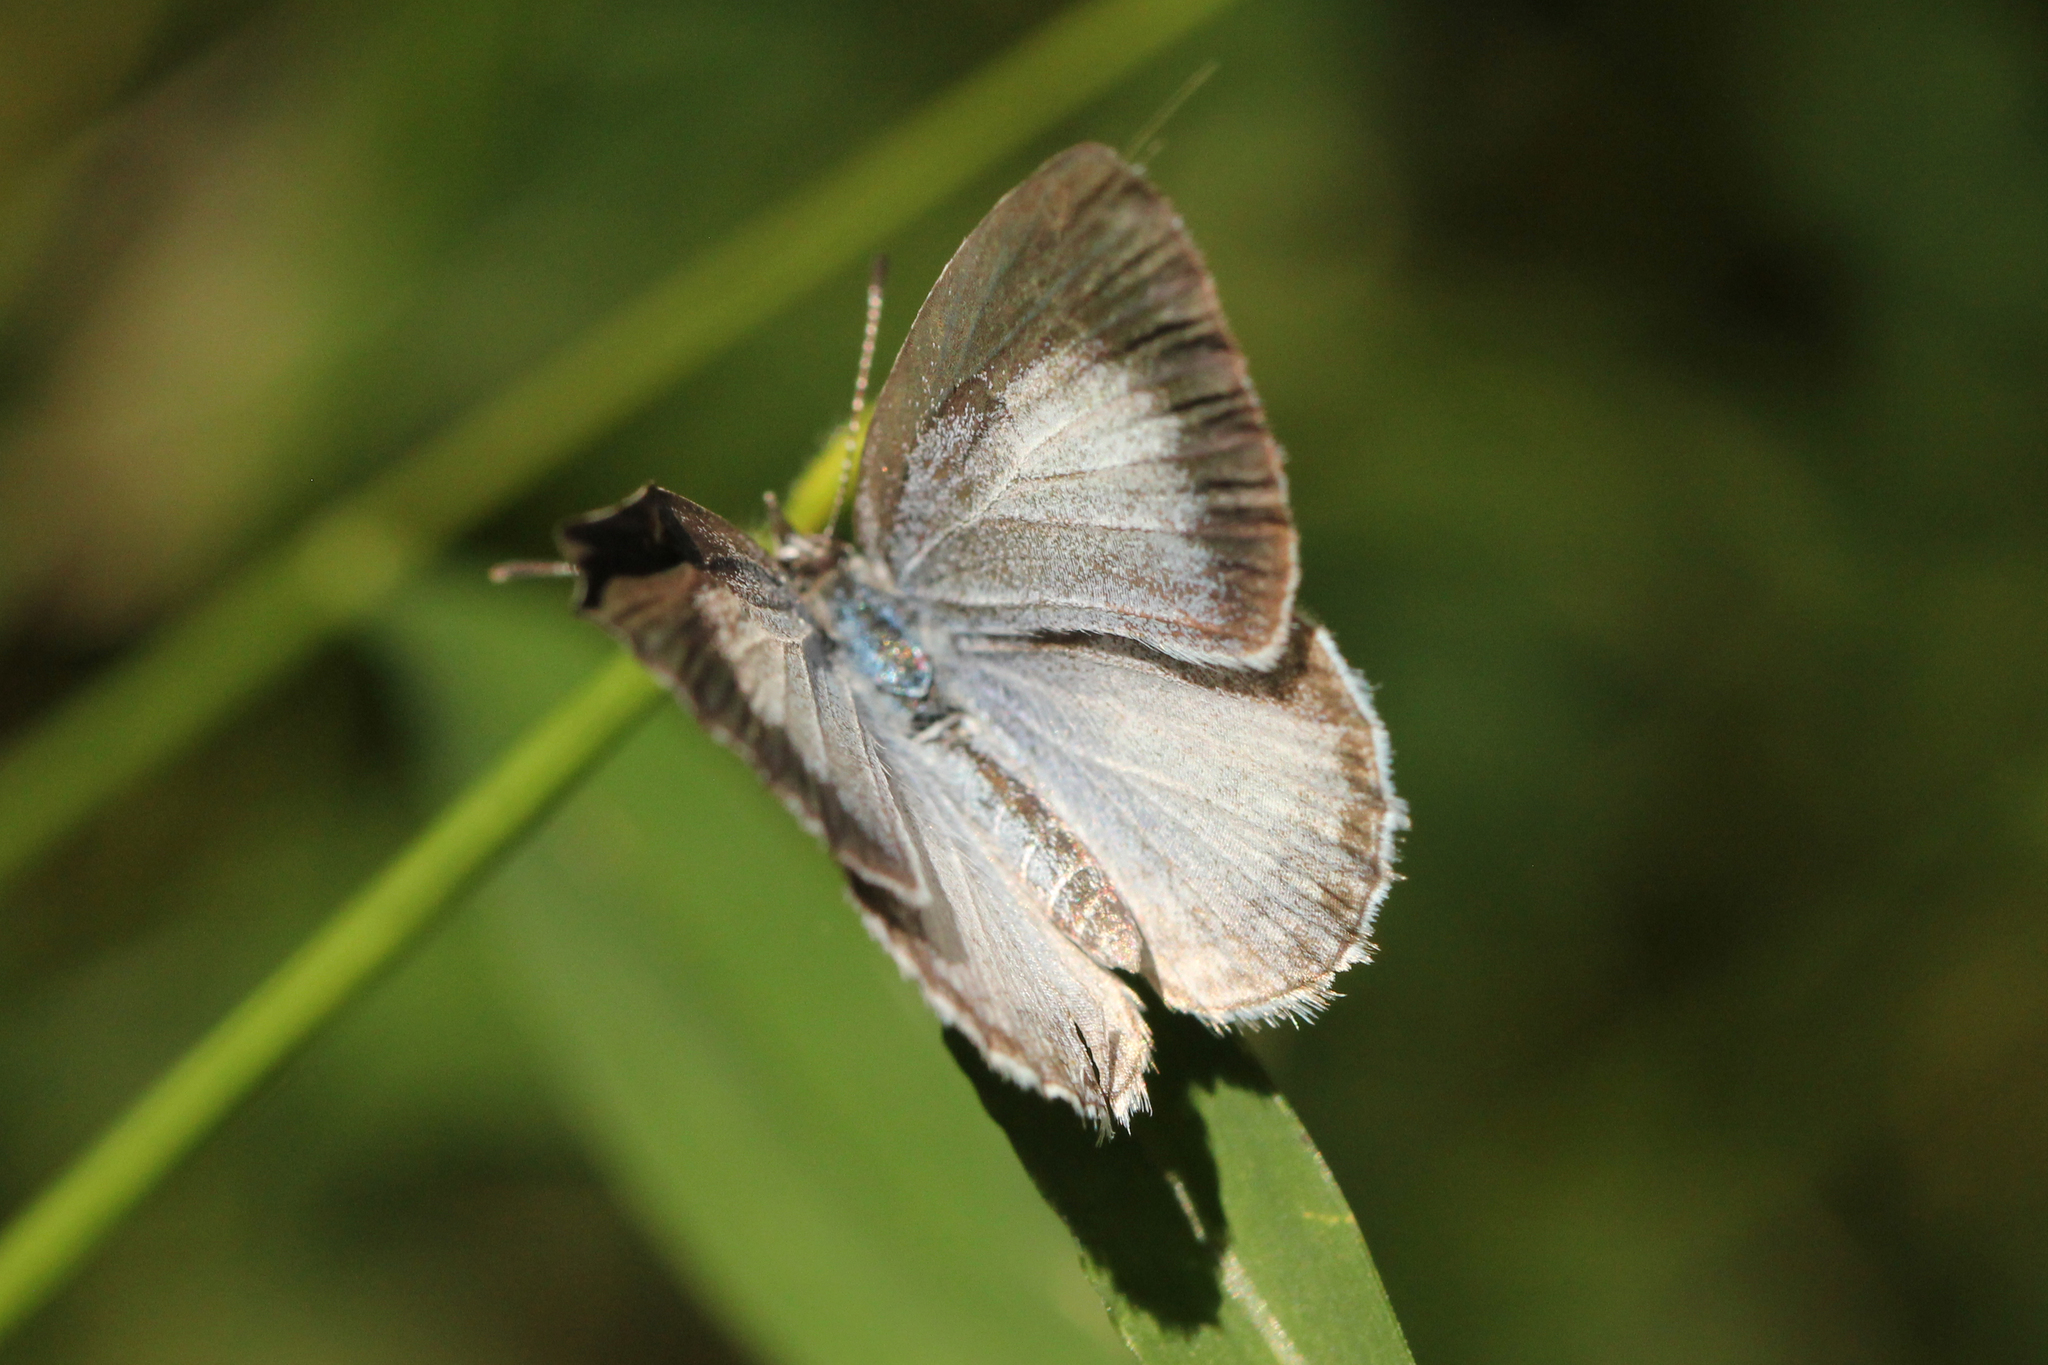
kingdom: Animalia
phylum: Arthropoda
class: Insecta
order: Lepidoptera
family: Lycaenidae
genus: Cyaniris
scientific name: Cyaniris neglecta
